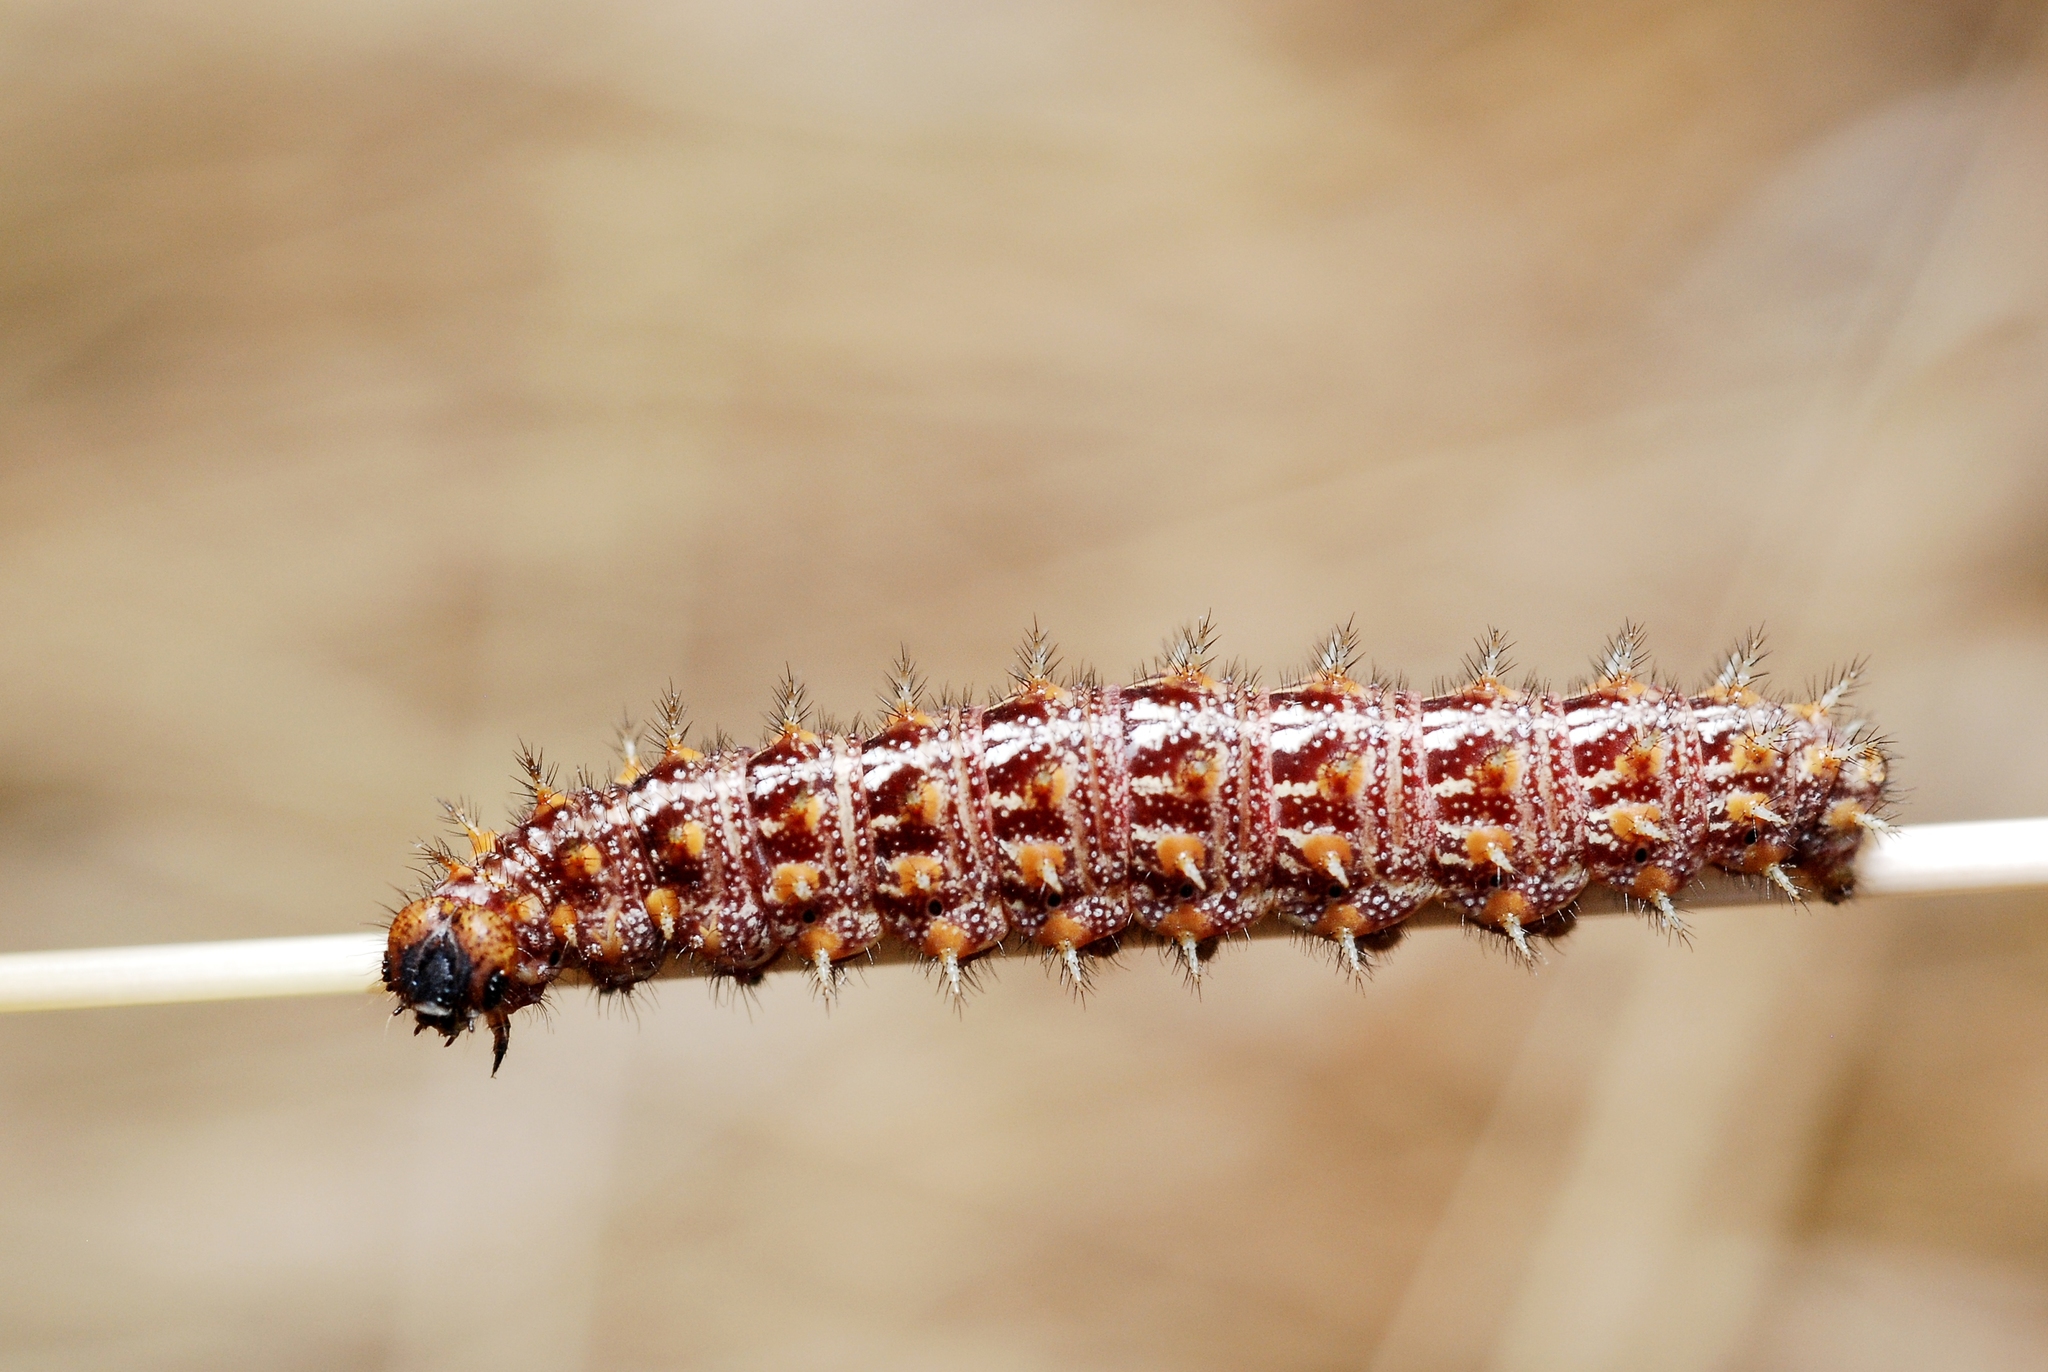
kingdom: Animalia
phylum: Arthropoda
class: Insecta
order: Lepidoptera
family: Nymphalidae
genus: Issoria
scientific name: Issoria lathonia
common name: Queen of spain fritillary
